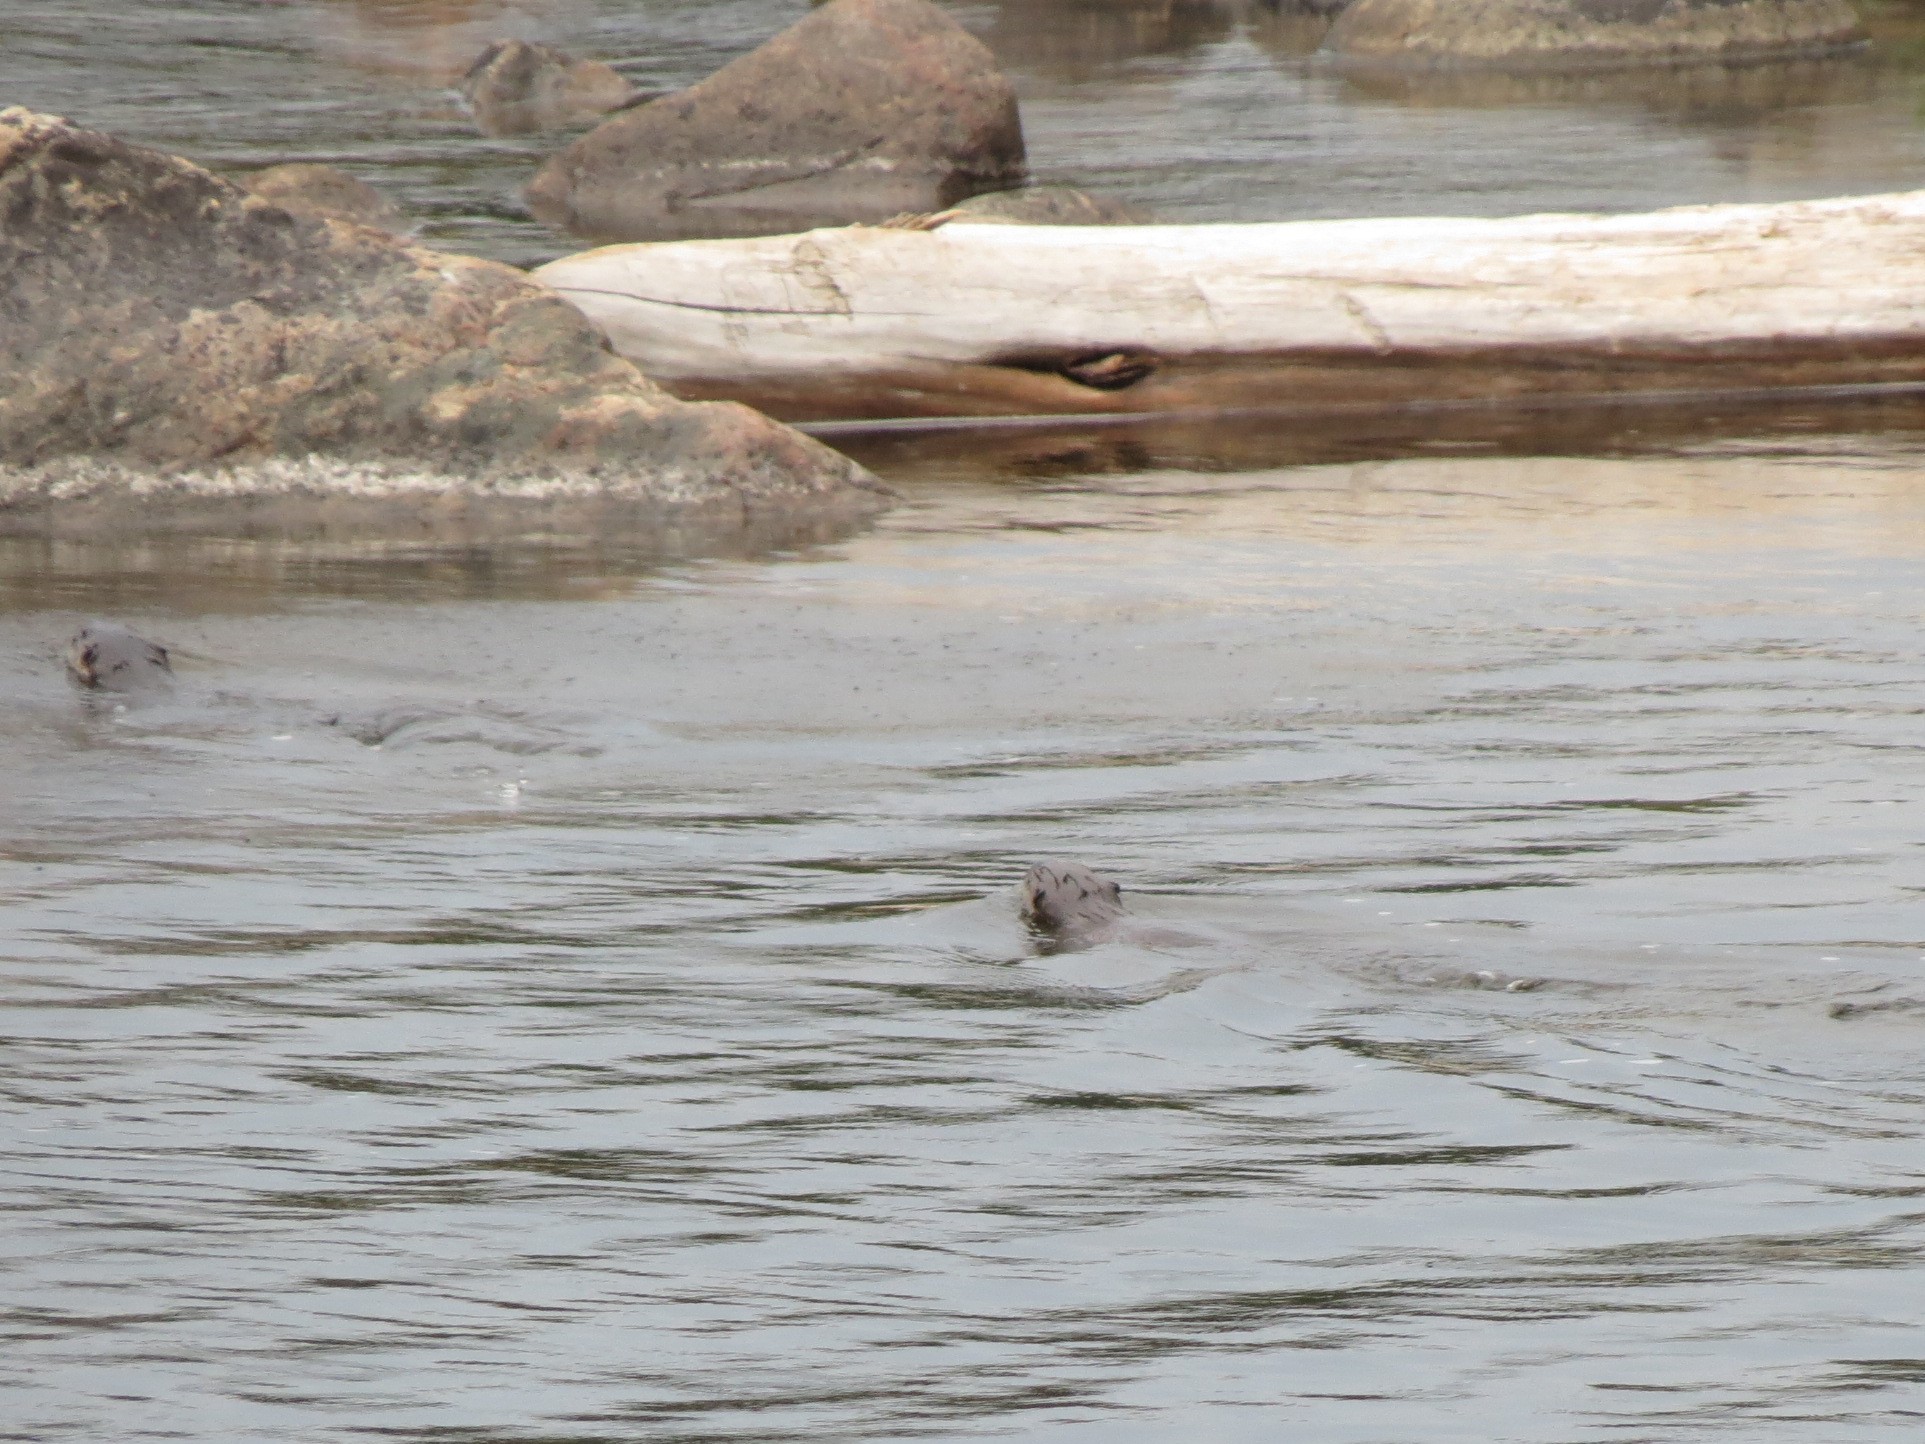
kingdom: Animalia
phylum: Chordata
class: Mammalia
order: Carnivora
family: Mustelidae
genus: Lontra
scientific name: Lontra canadensis
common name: North american river otter
